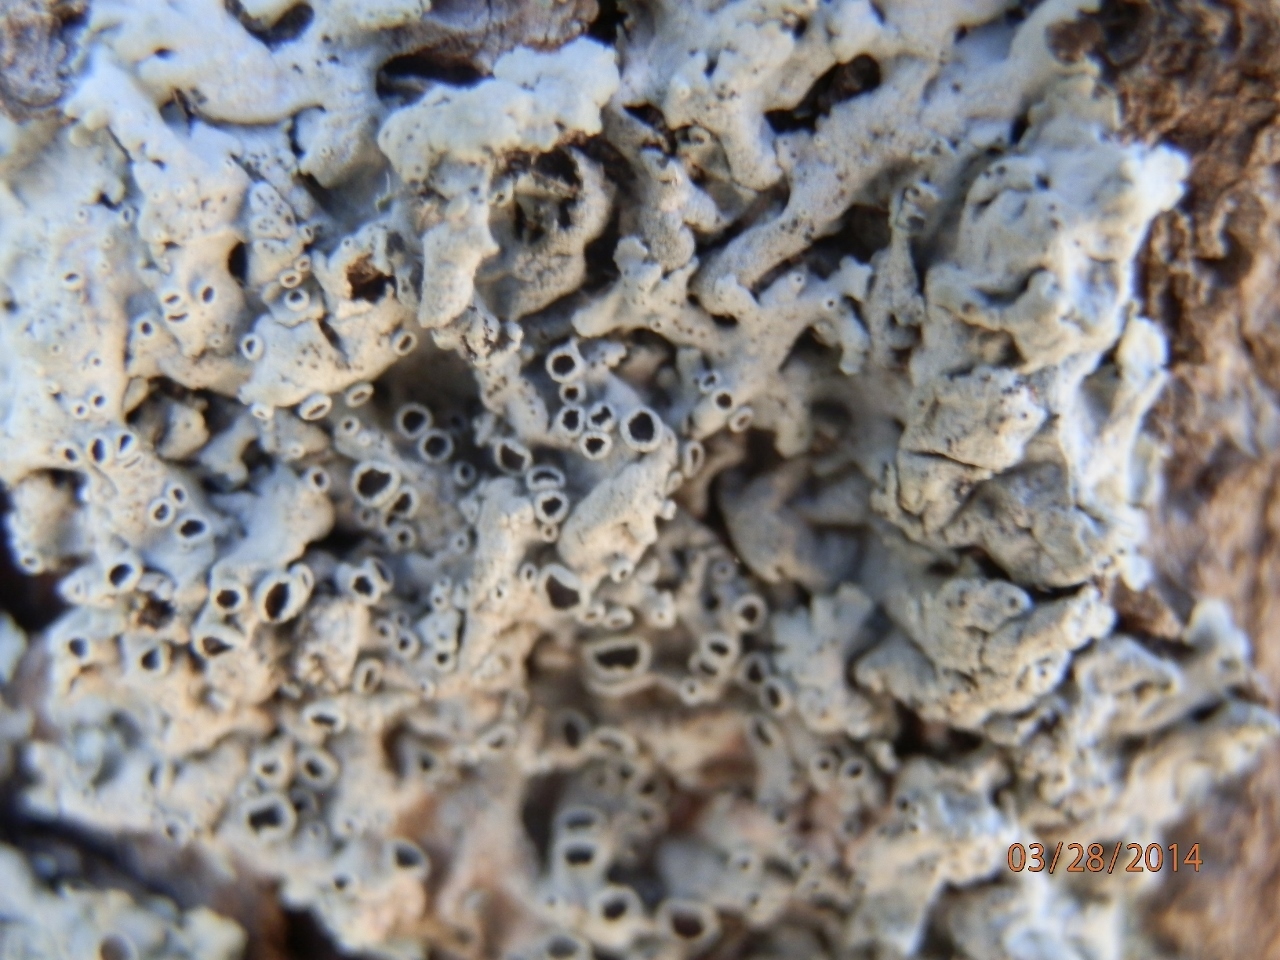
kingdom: Fungi
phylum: Ascomycota
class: Lecanoromycetes
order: Caliciales
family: Physciaceae
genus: Physcia
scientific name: Physcia biziana
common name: Frosted rosette lichen
